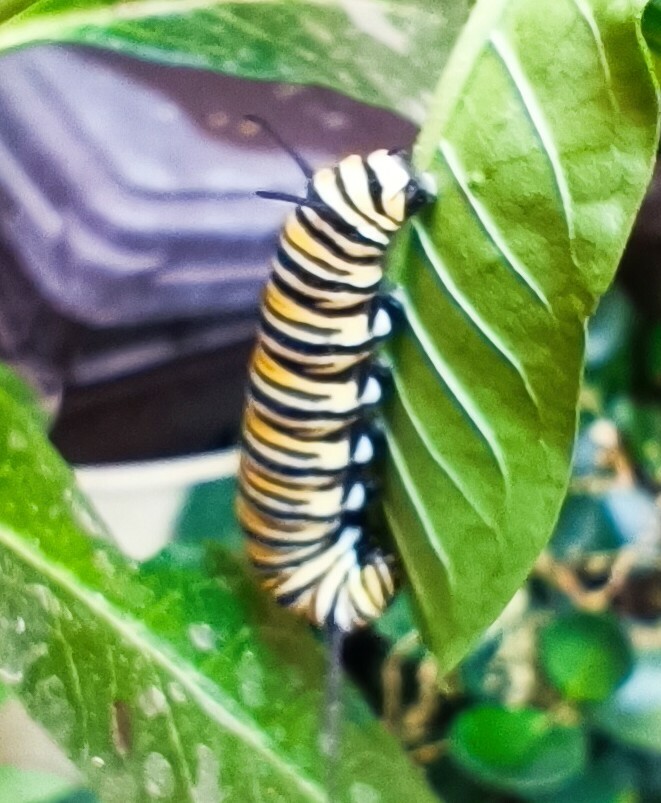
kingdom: Animalia
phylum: Arthropoda
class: Insecta
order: Lepidoptera
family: Nymphalidae
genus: Danaus
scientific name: Danaus plexippus
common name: Monarch
